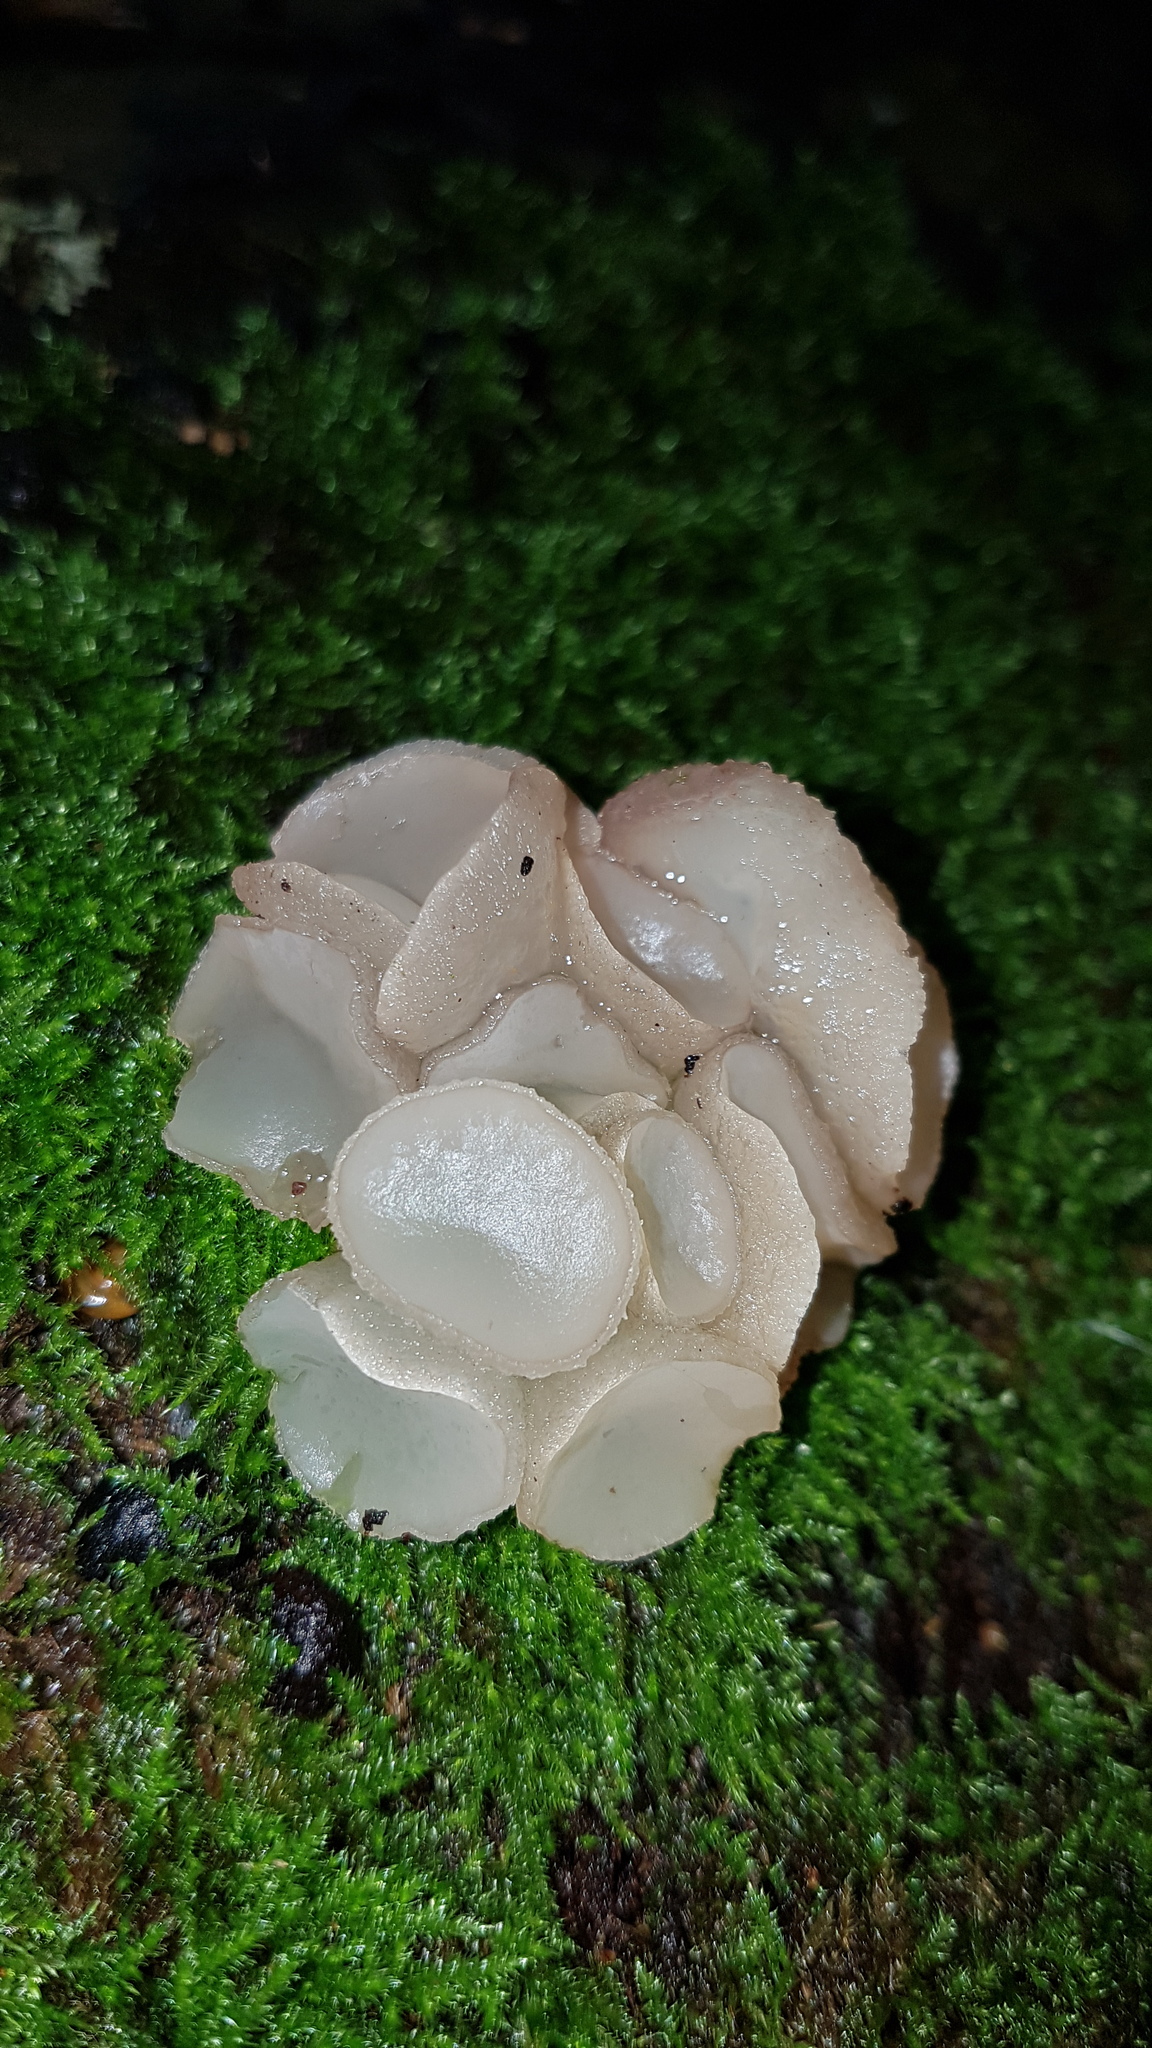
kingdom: Fungi
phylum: Ascomycota
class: Leotiomycetes
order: Helotiales
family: Gelatinodiscaceae
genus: Neobulgaria
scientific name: Neobulgaria pura
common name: Beech jelly-disc
